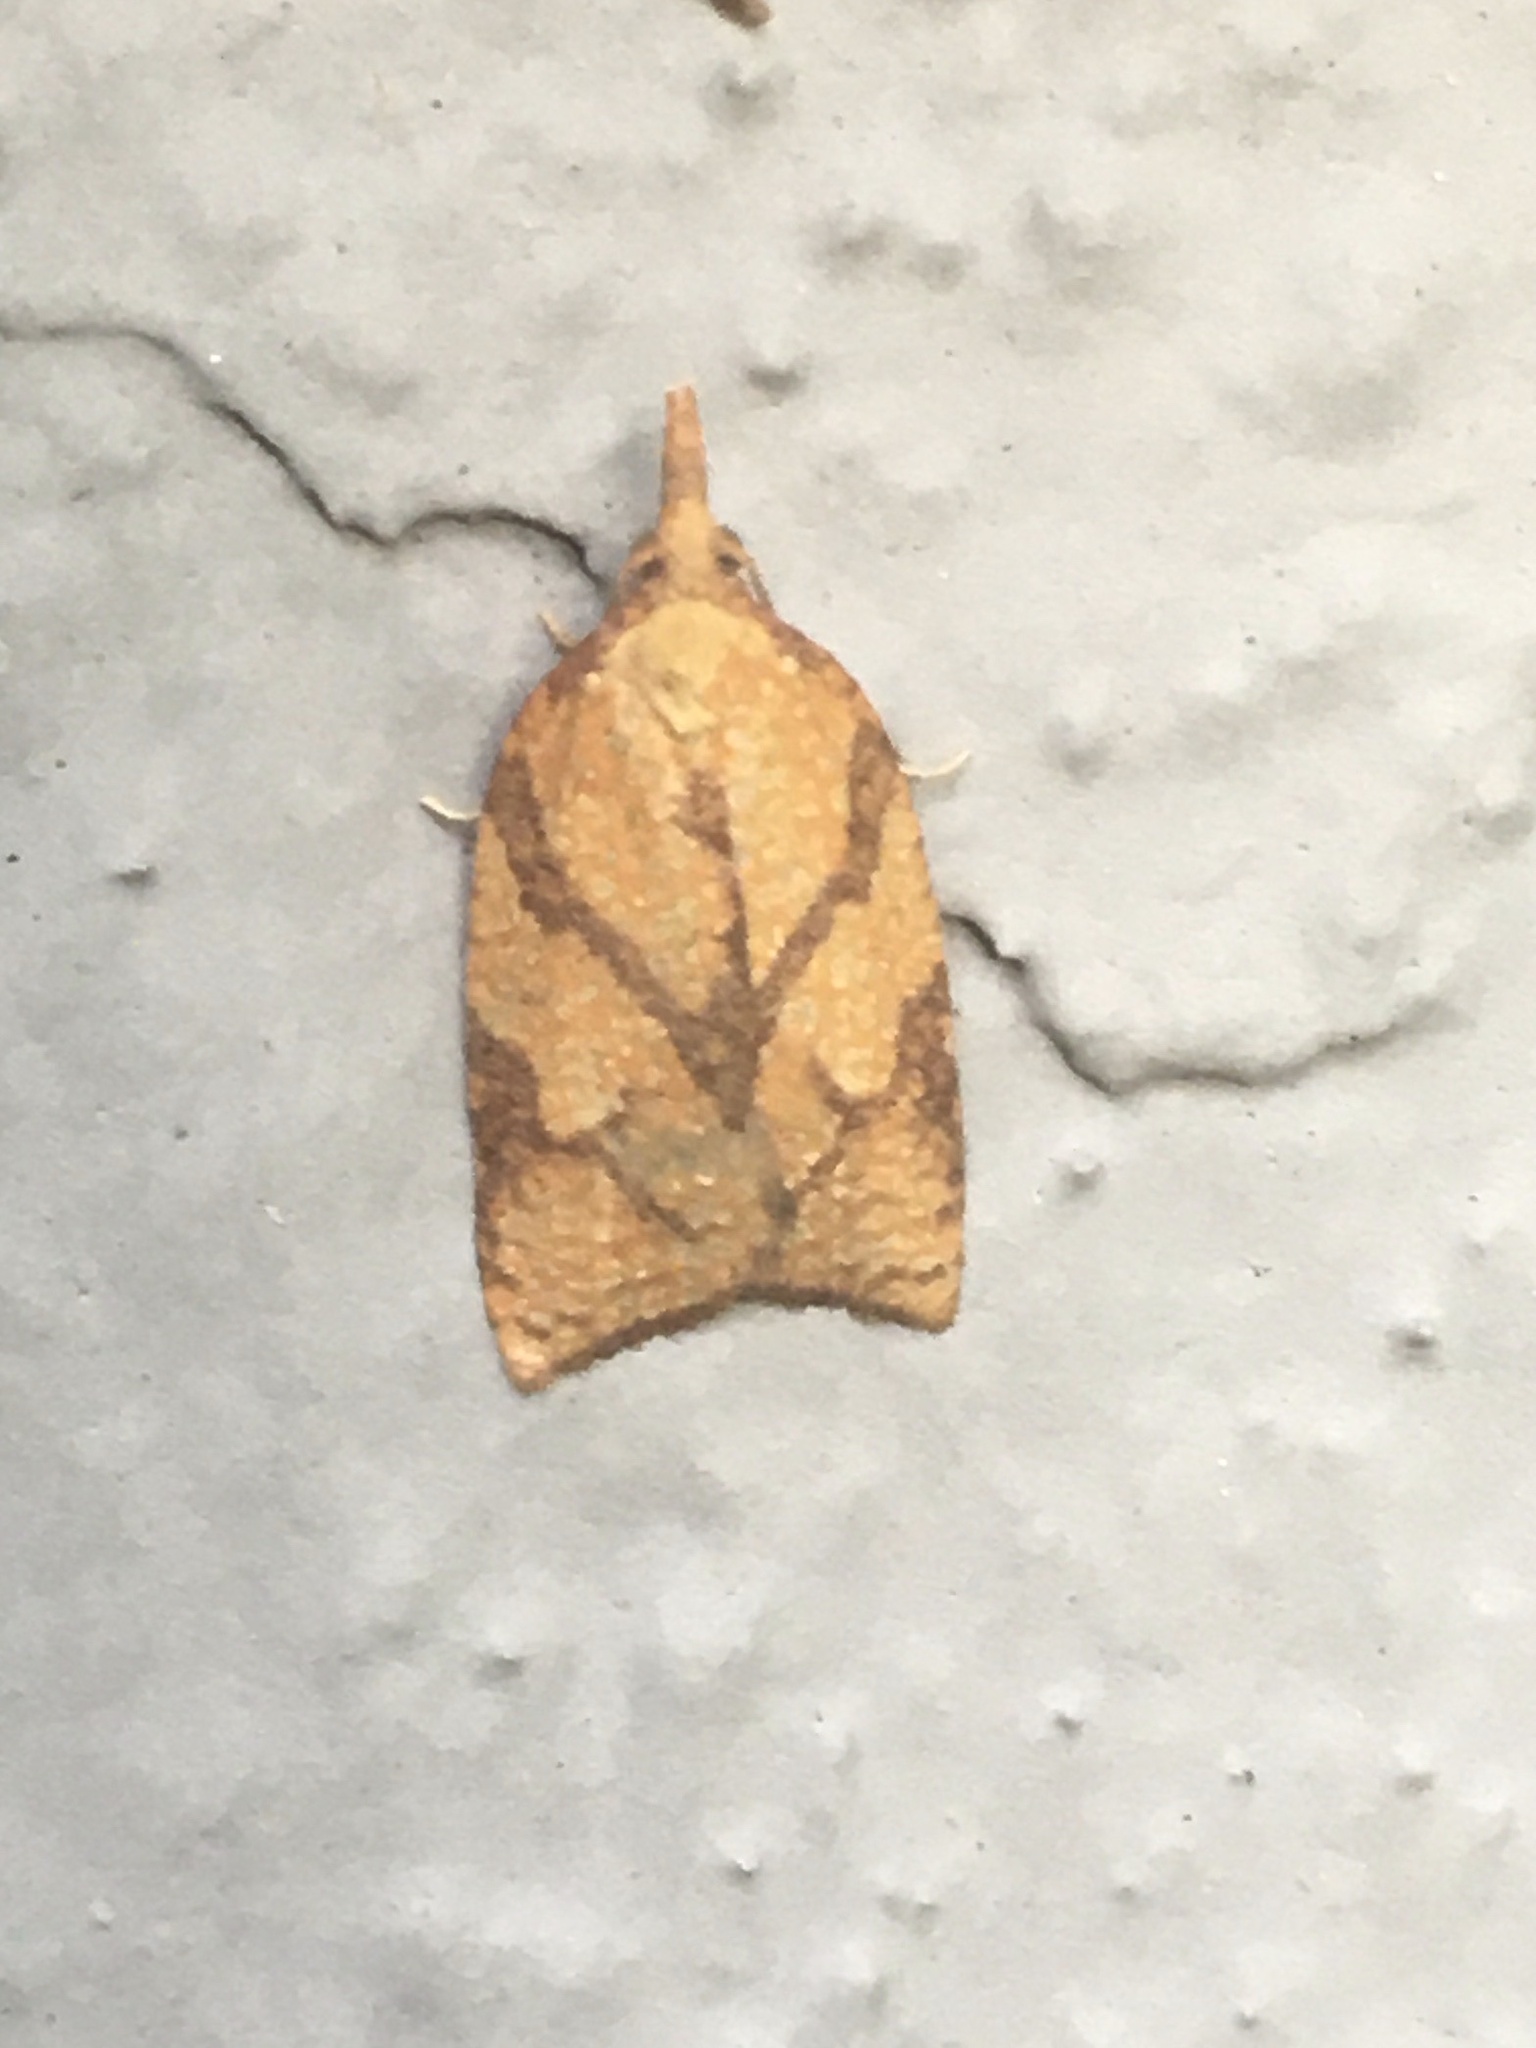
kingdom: Animalia
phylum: Arthropoda
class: Insecta
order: Lepidoptera
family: Tortricidae
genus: Cenopis
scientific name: Cenopis reticulatana
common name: Reticulated fruitworm moth
